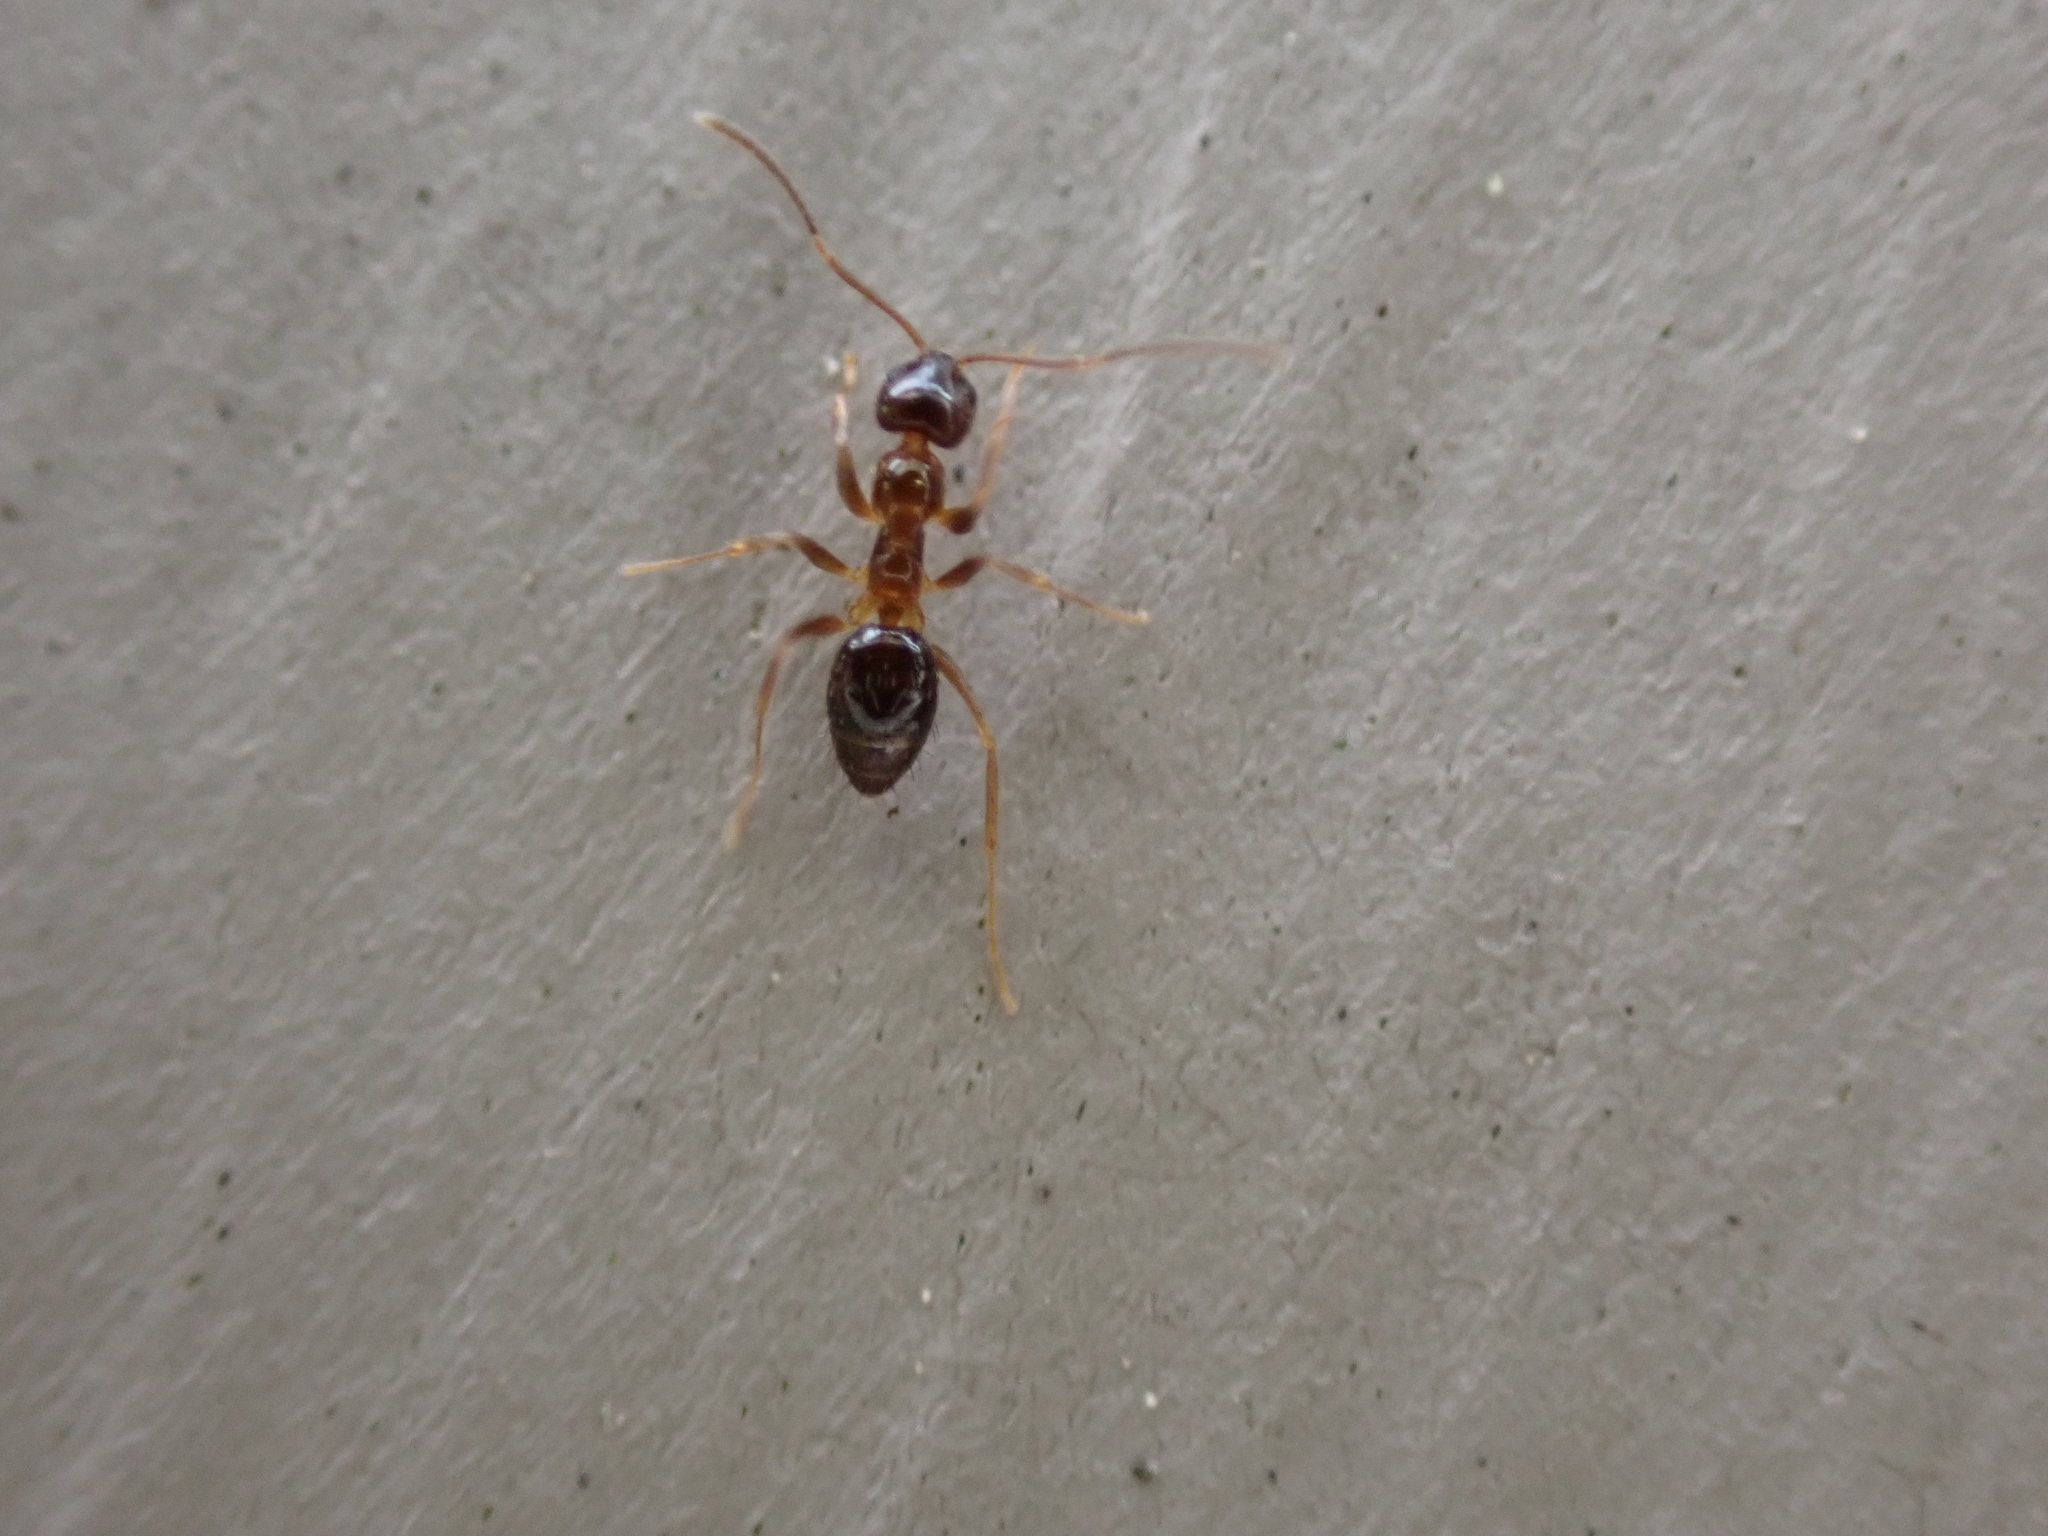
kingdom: Animalia
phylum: Arthropoda
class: Insecta
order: Hymenoptera
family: Formicidae
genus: Prenolepis
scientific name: Prenolepis imparis
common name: Small honey ant
